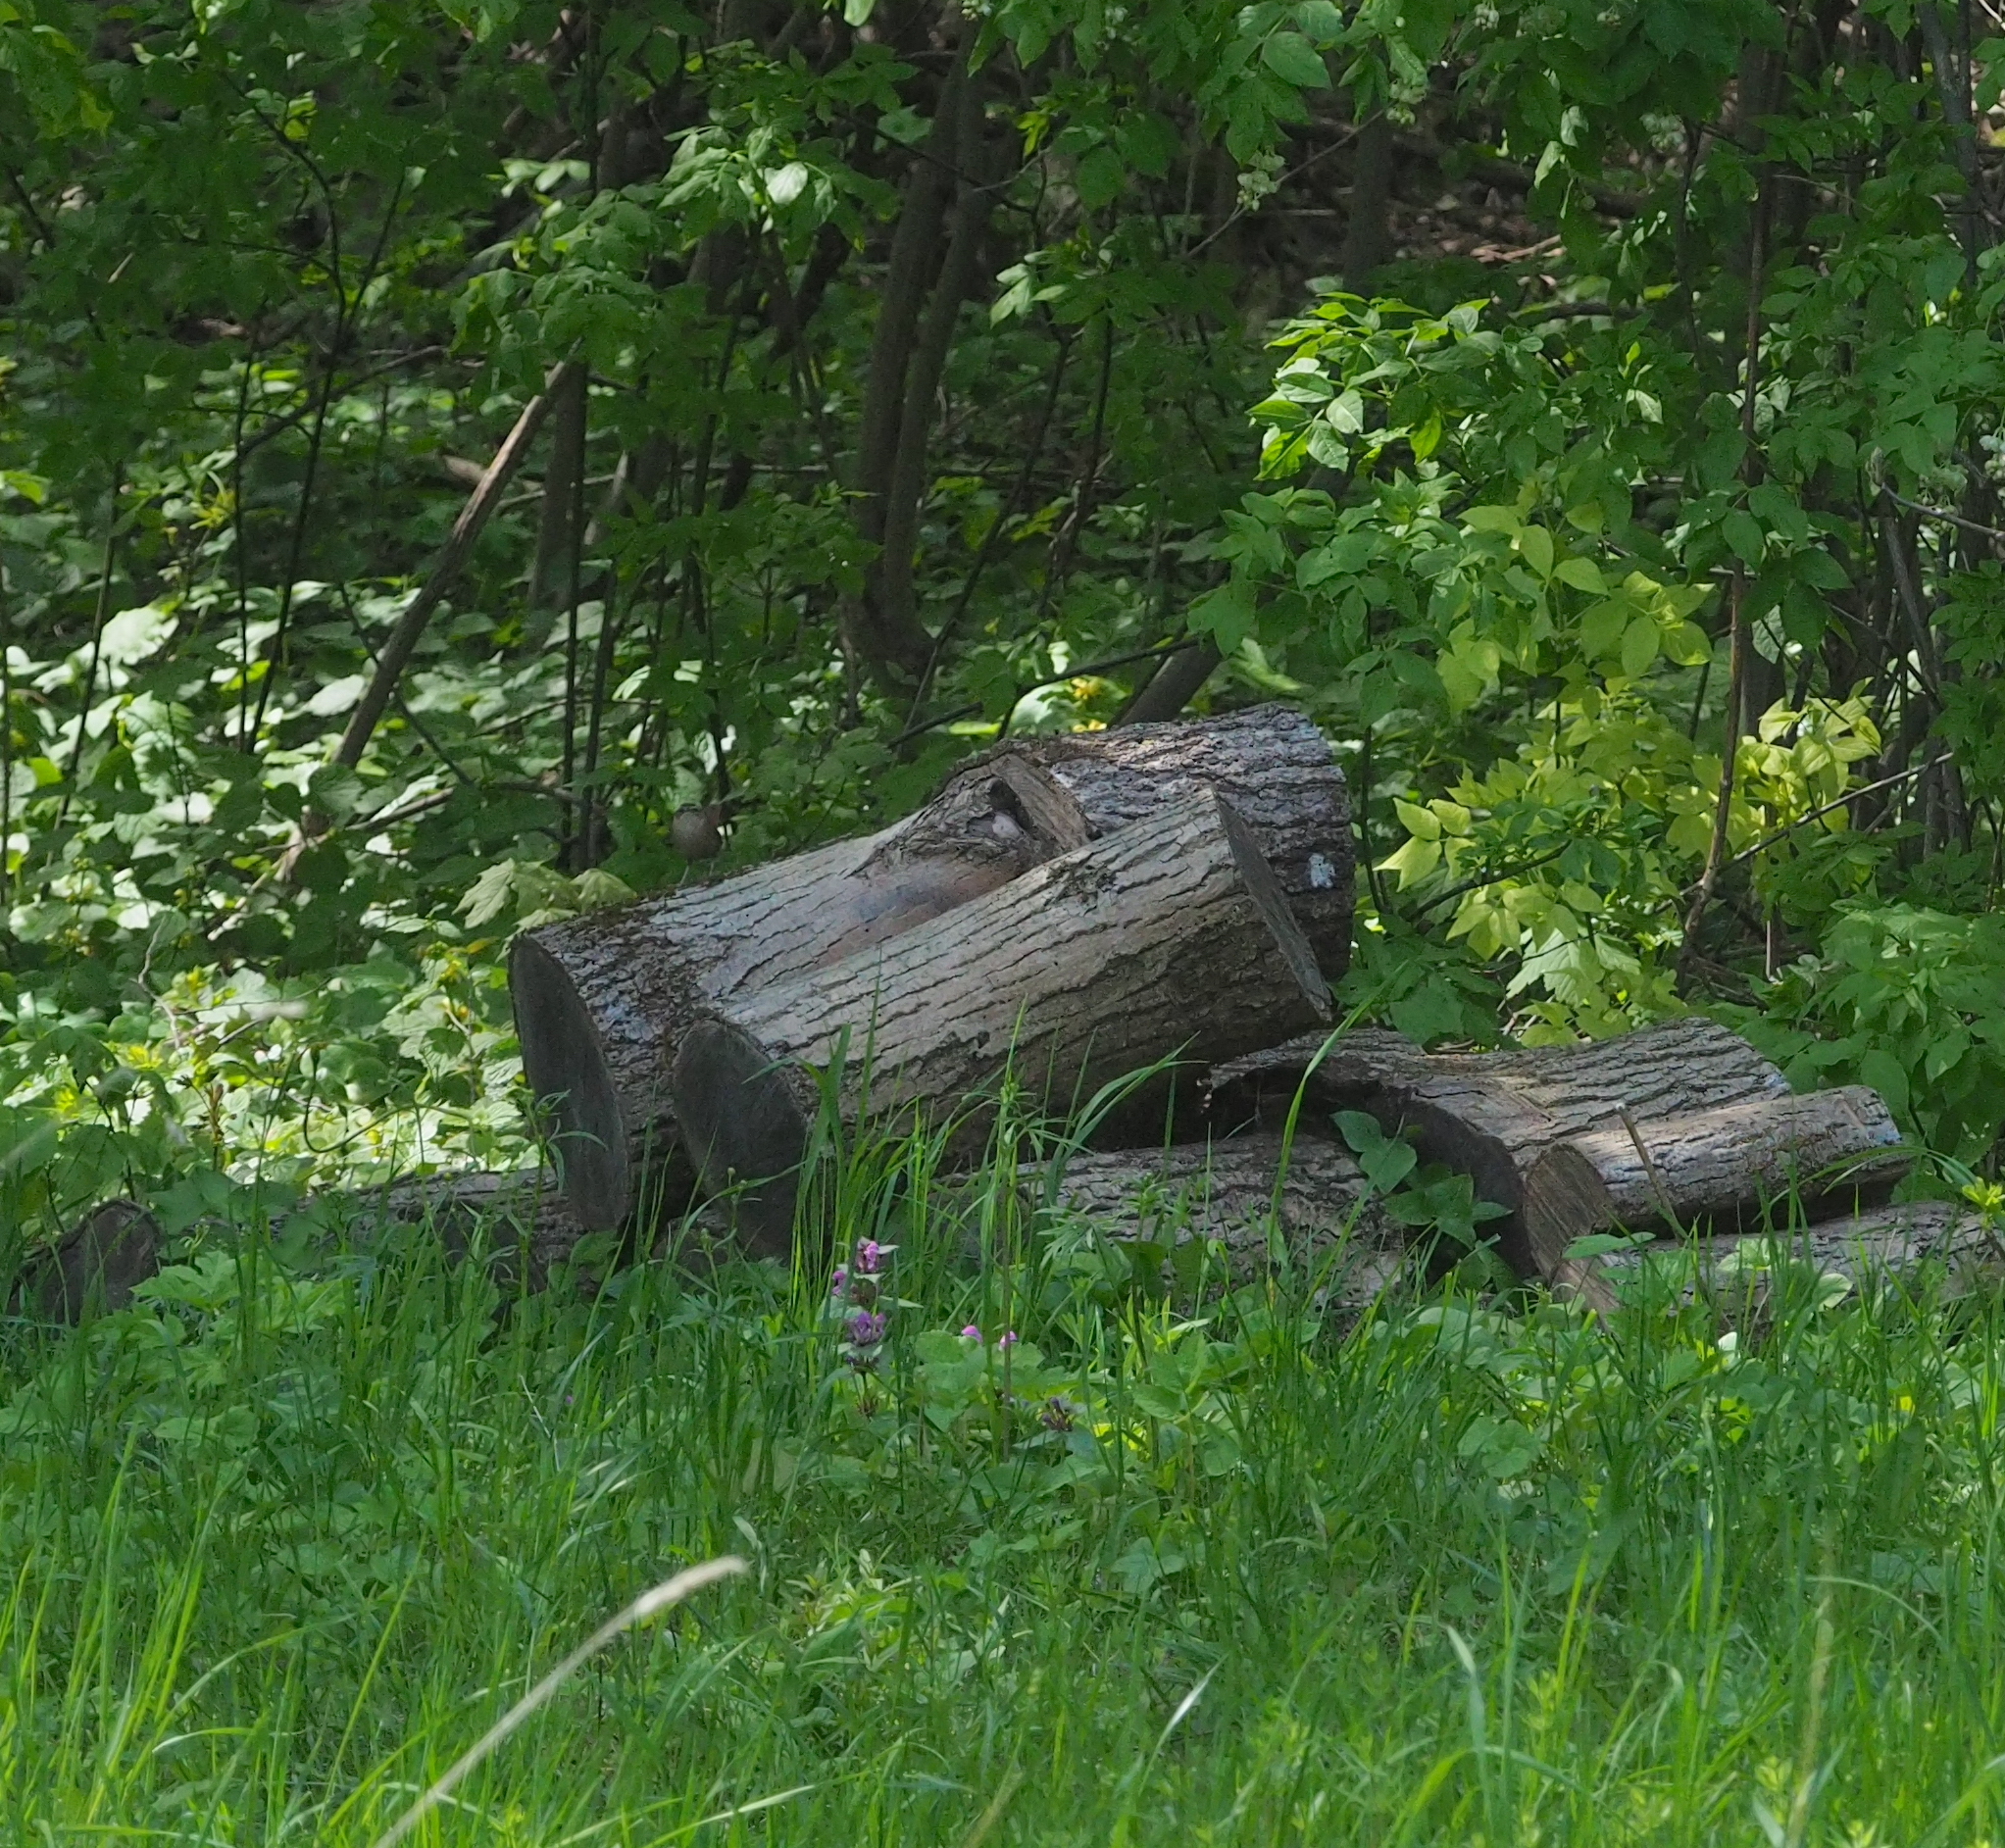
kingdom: Animalia
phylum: Chordata
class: Aves
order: Passeriformes
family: Troglodytidae
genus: Troglodytes
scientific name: Troglodytes troglodytes
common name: Eurasian wren
